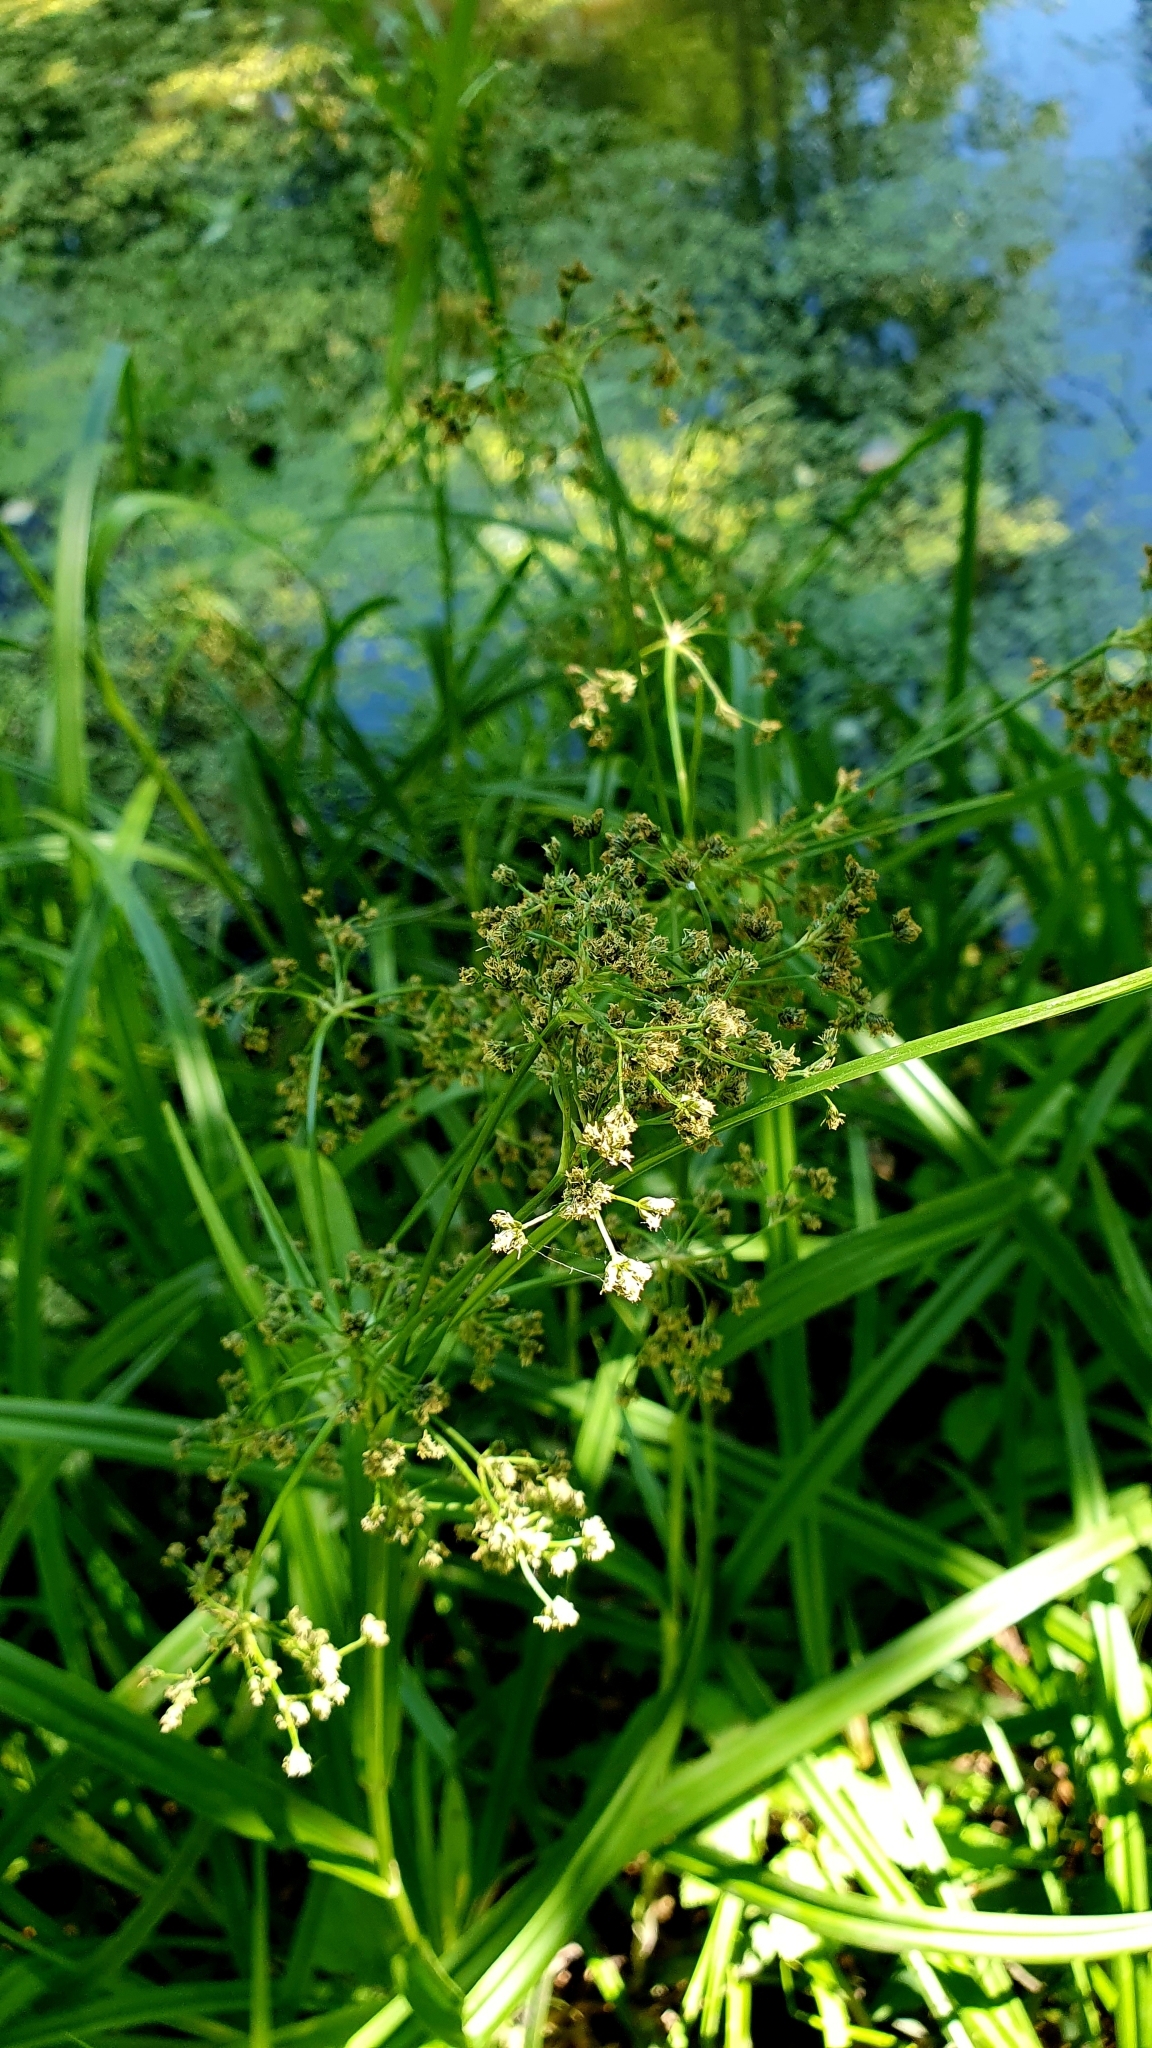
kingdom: Plantae
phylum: Tracheophyta
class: Liliopsida
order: Poales
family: Cyperaceae
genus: Scirpus
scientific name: Scirpus sylvaticus
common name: Wood club-rush
